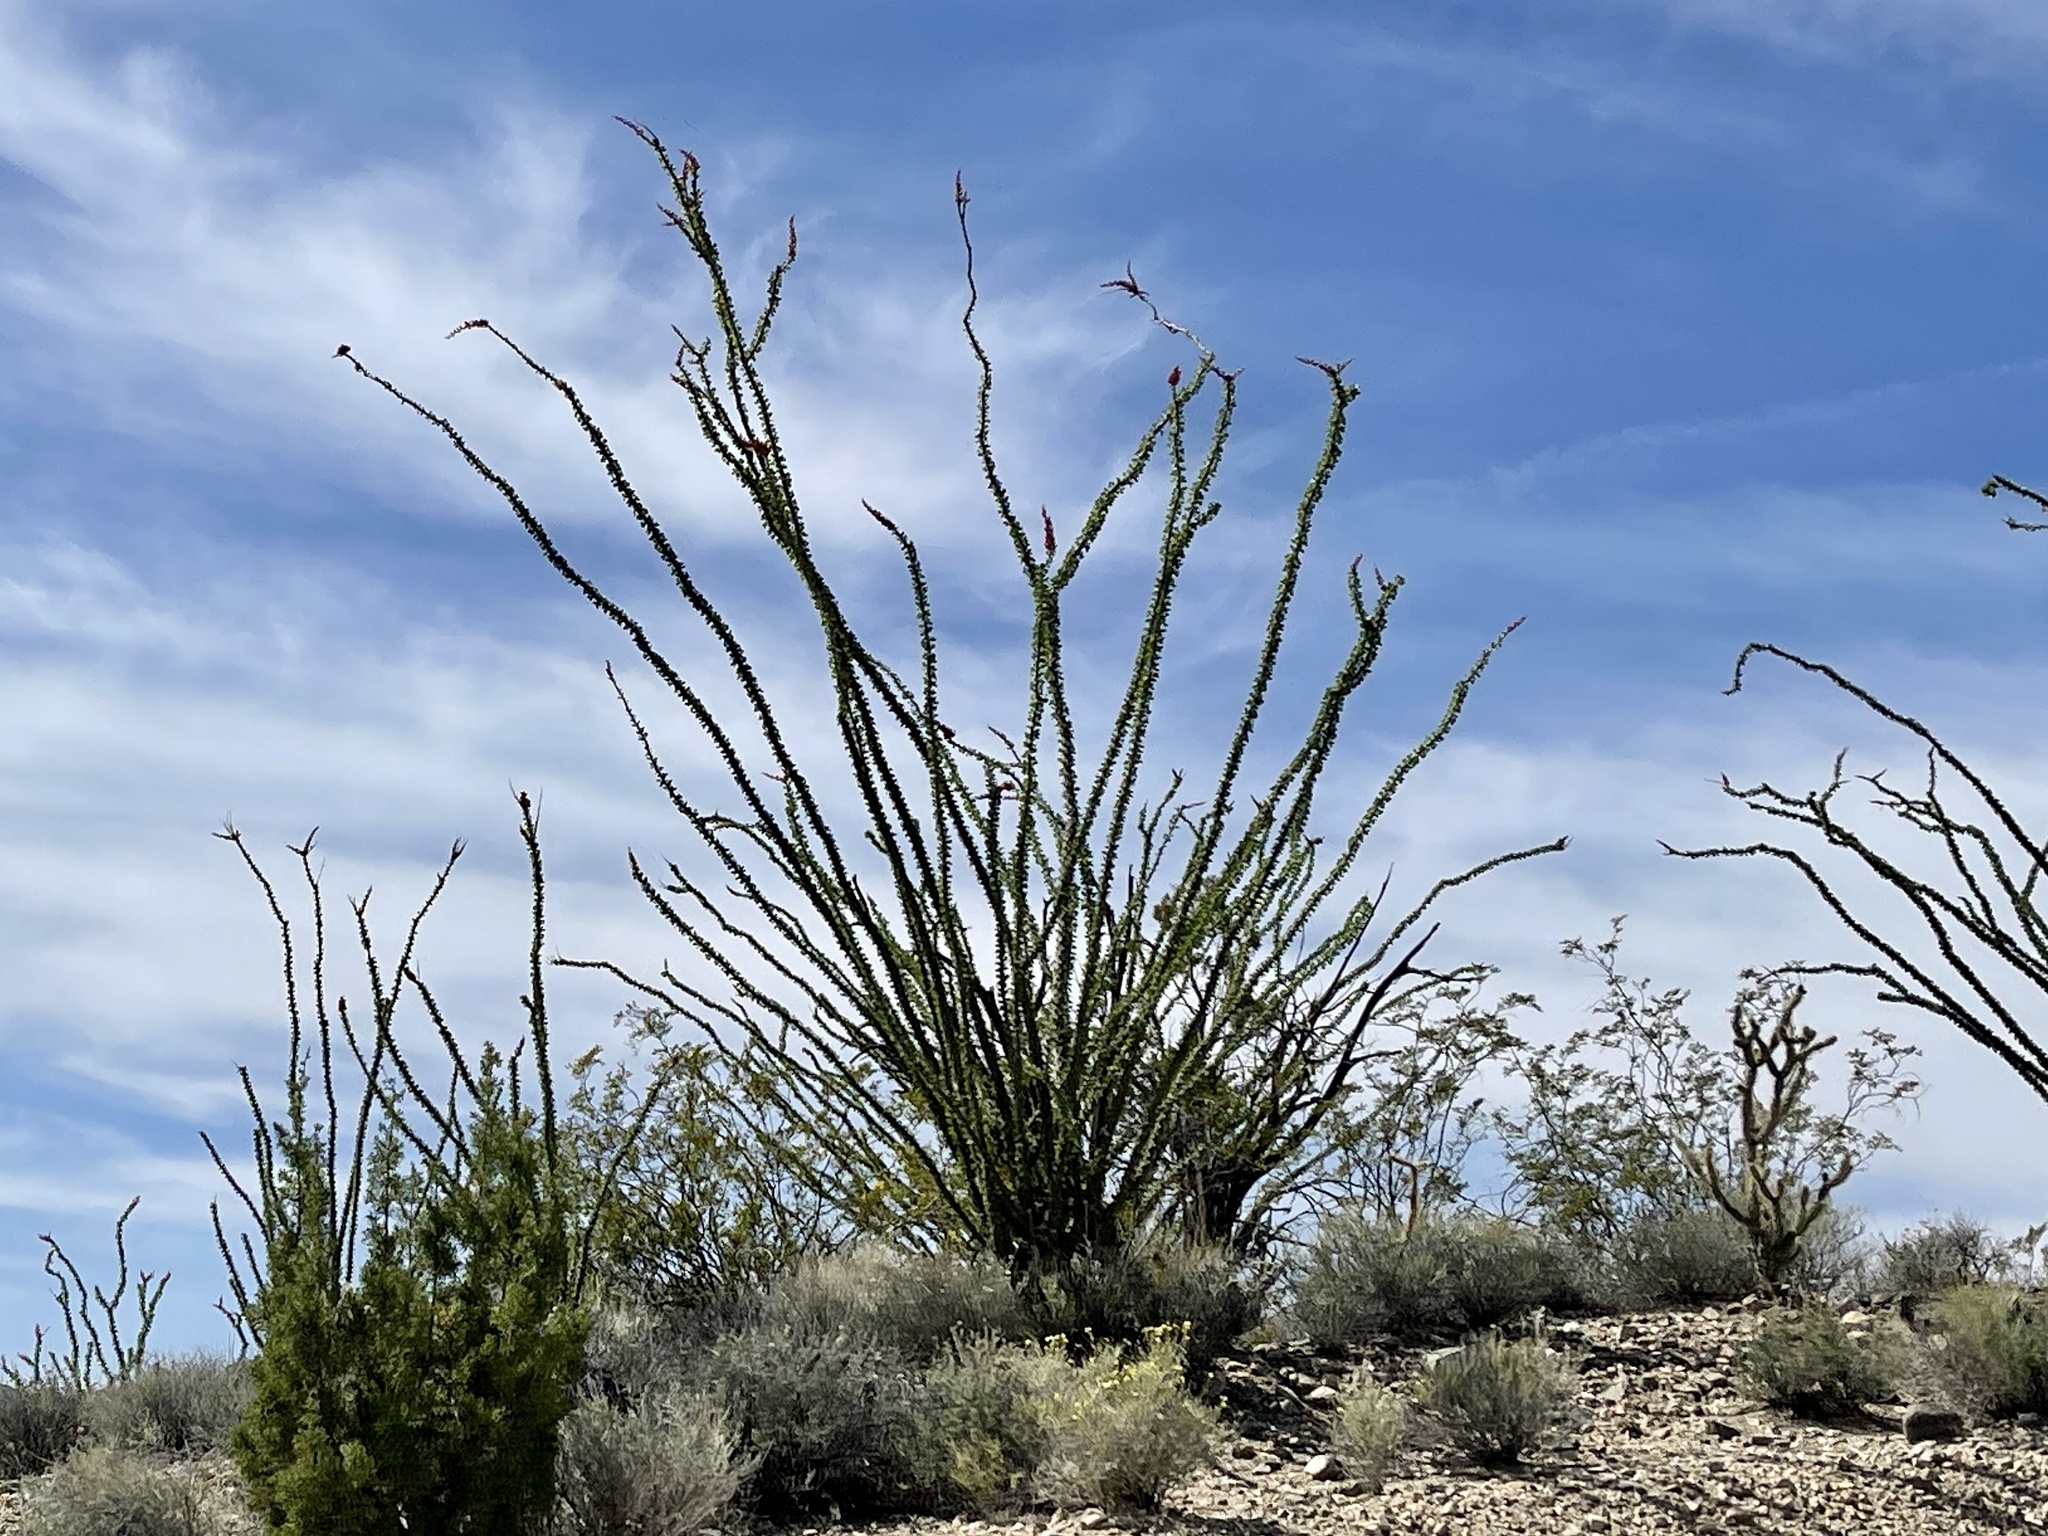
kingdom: Plantae
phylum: Tracheophyta
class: Magnoliopsida
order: Ericales
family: Fouquieriaceae
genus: Fouquieria
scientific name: Fouquieria splendens
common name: Vine-cactus
